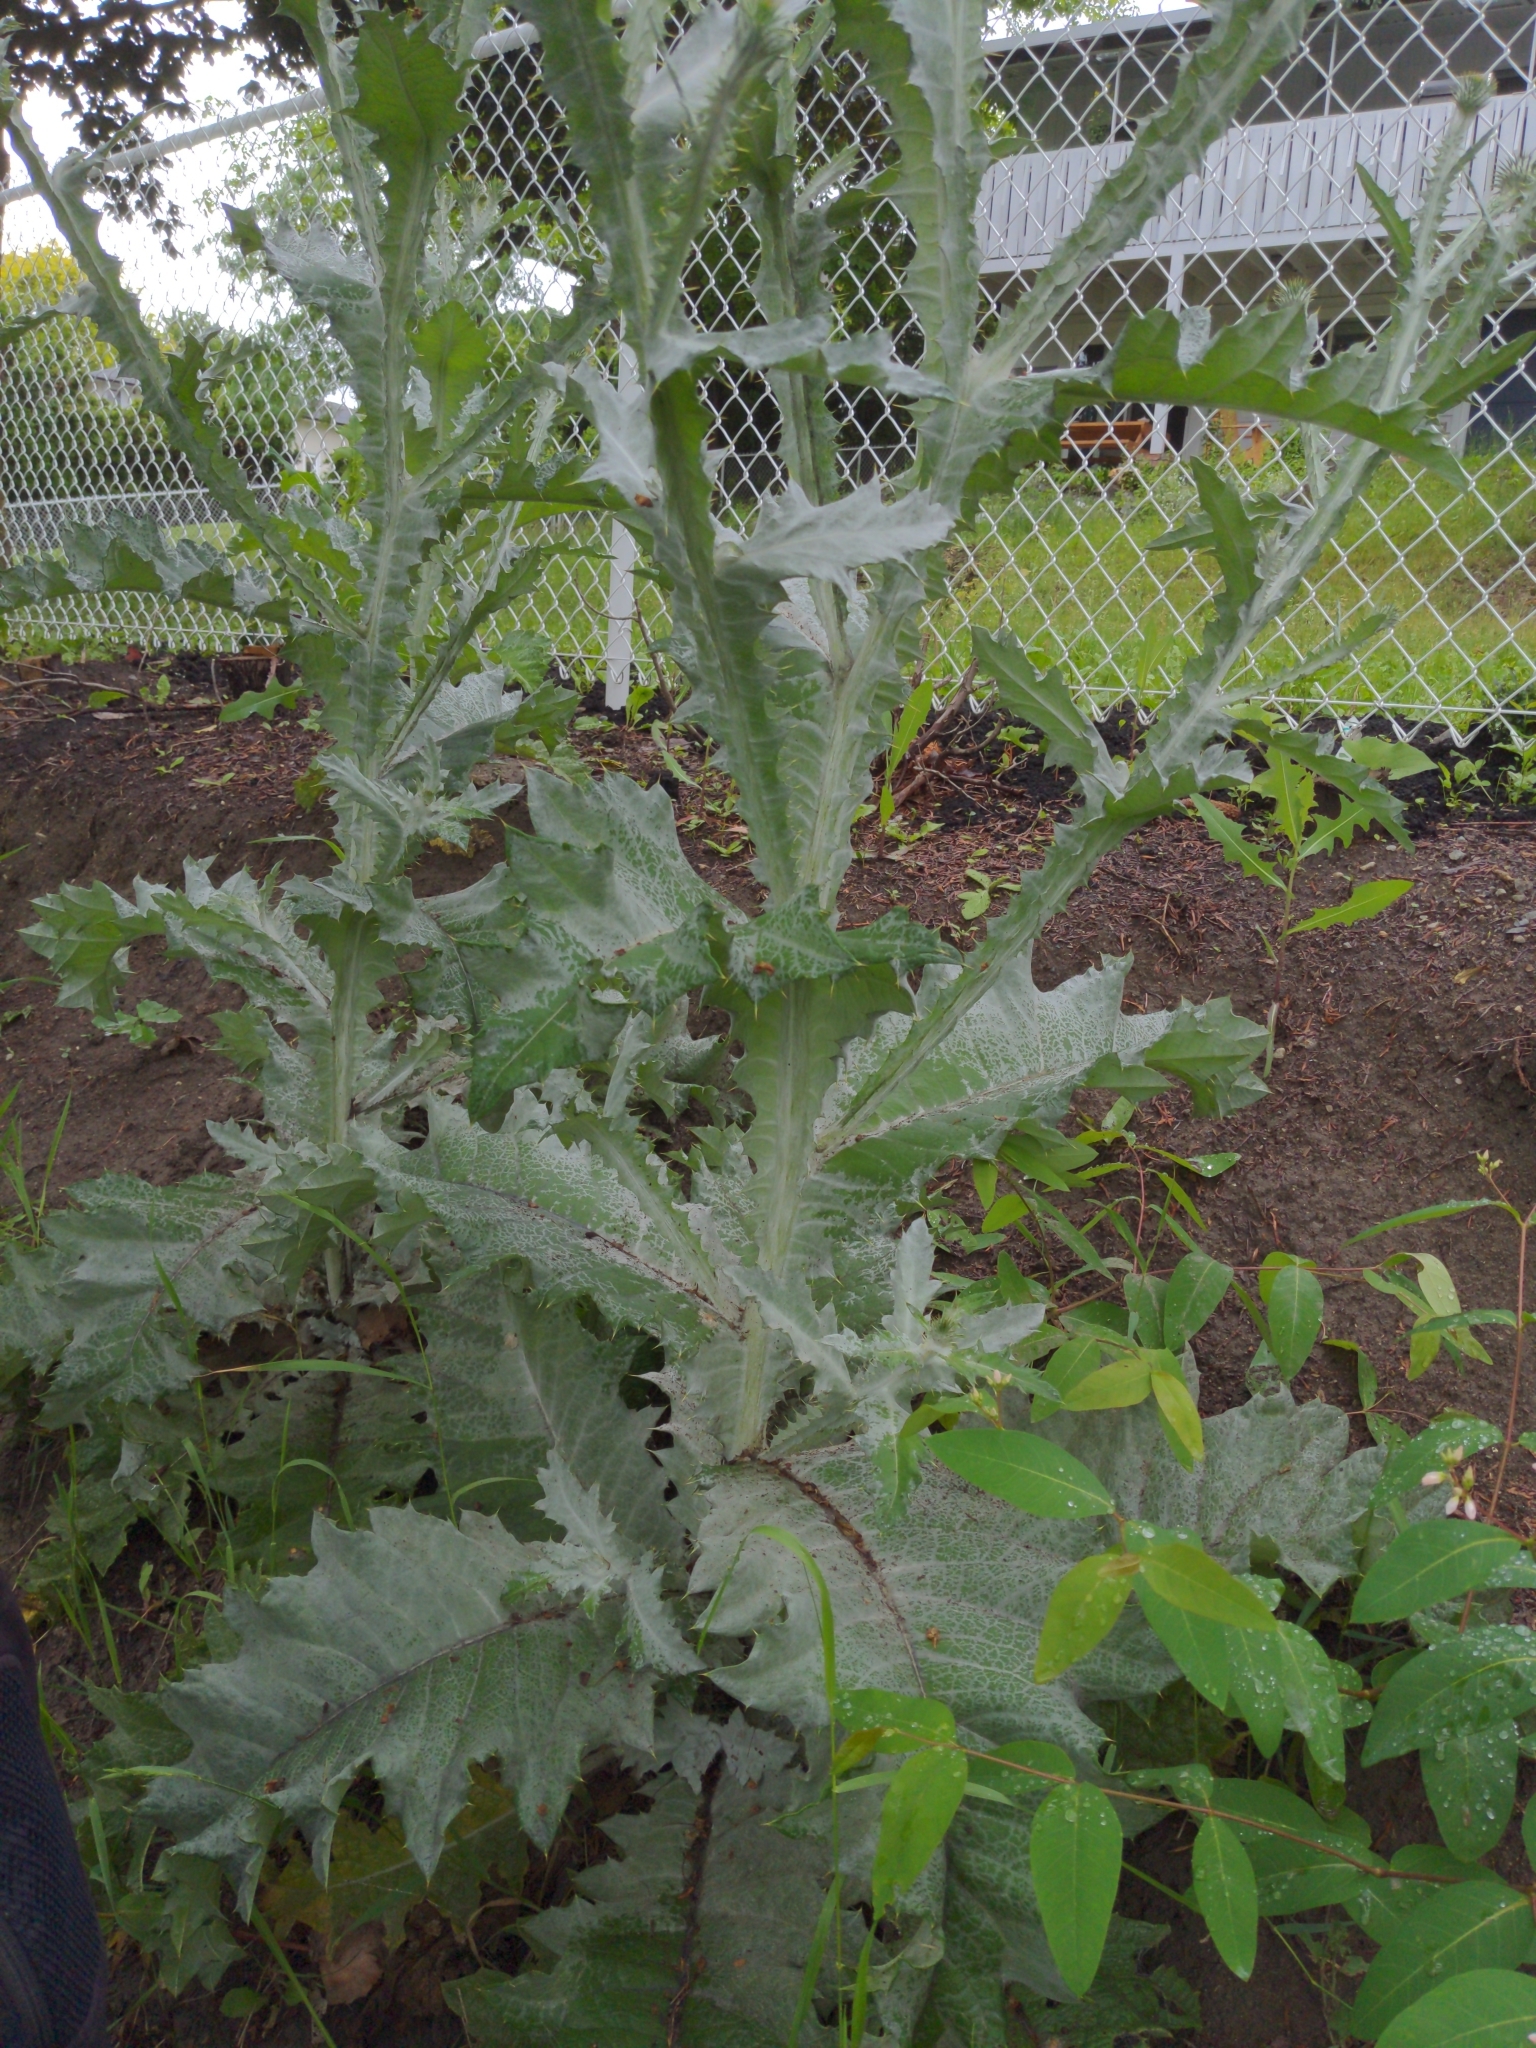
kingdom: Plantae
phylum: Tracheophyta
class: Magnoliopsida
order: Asterales
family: Asteraceae
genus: Onopordum
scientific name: Onopordum acanthium
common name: Scotch thistle
